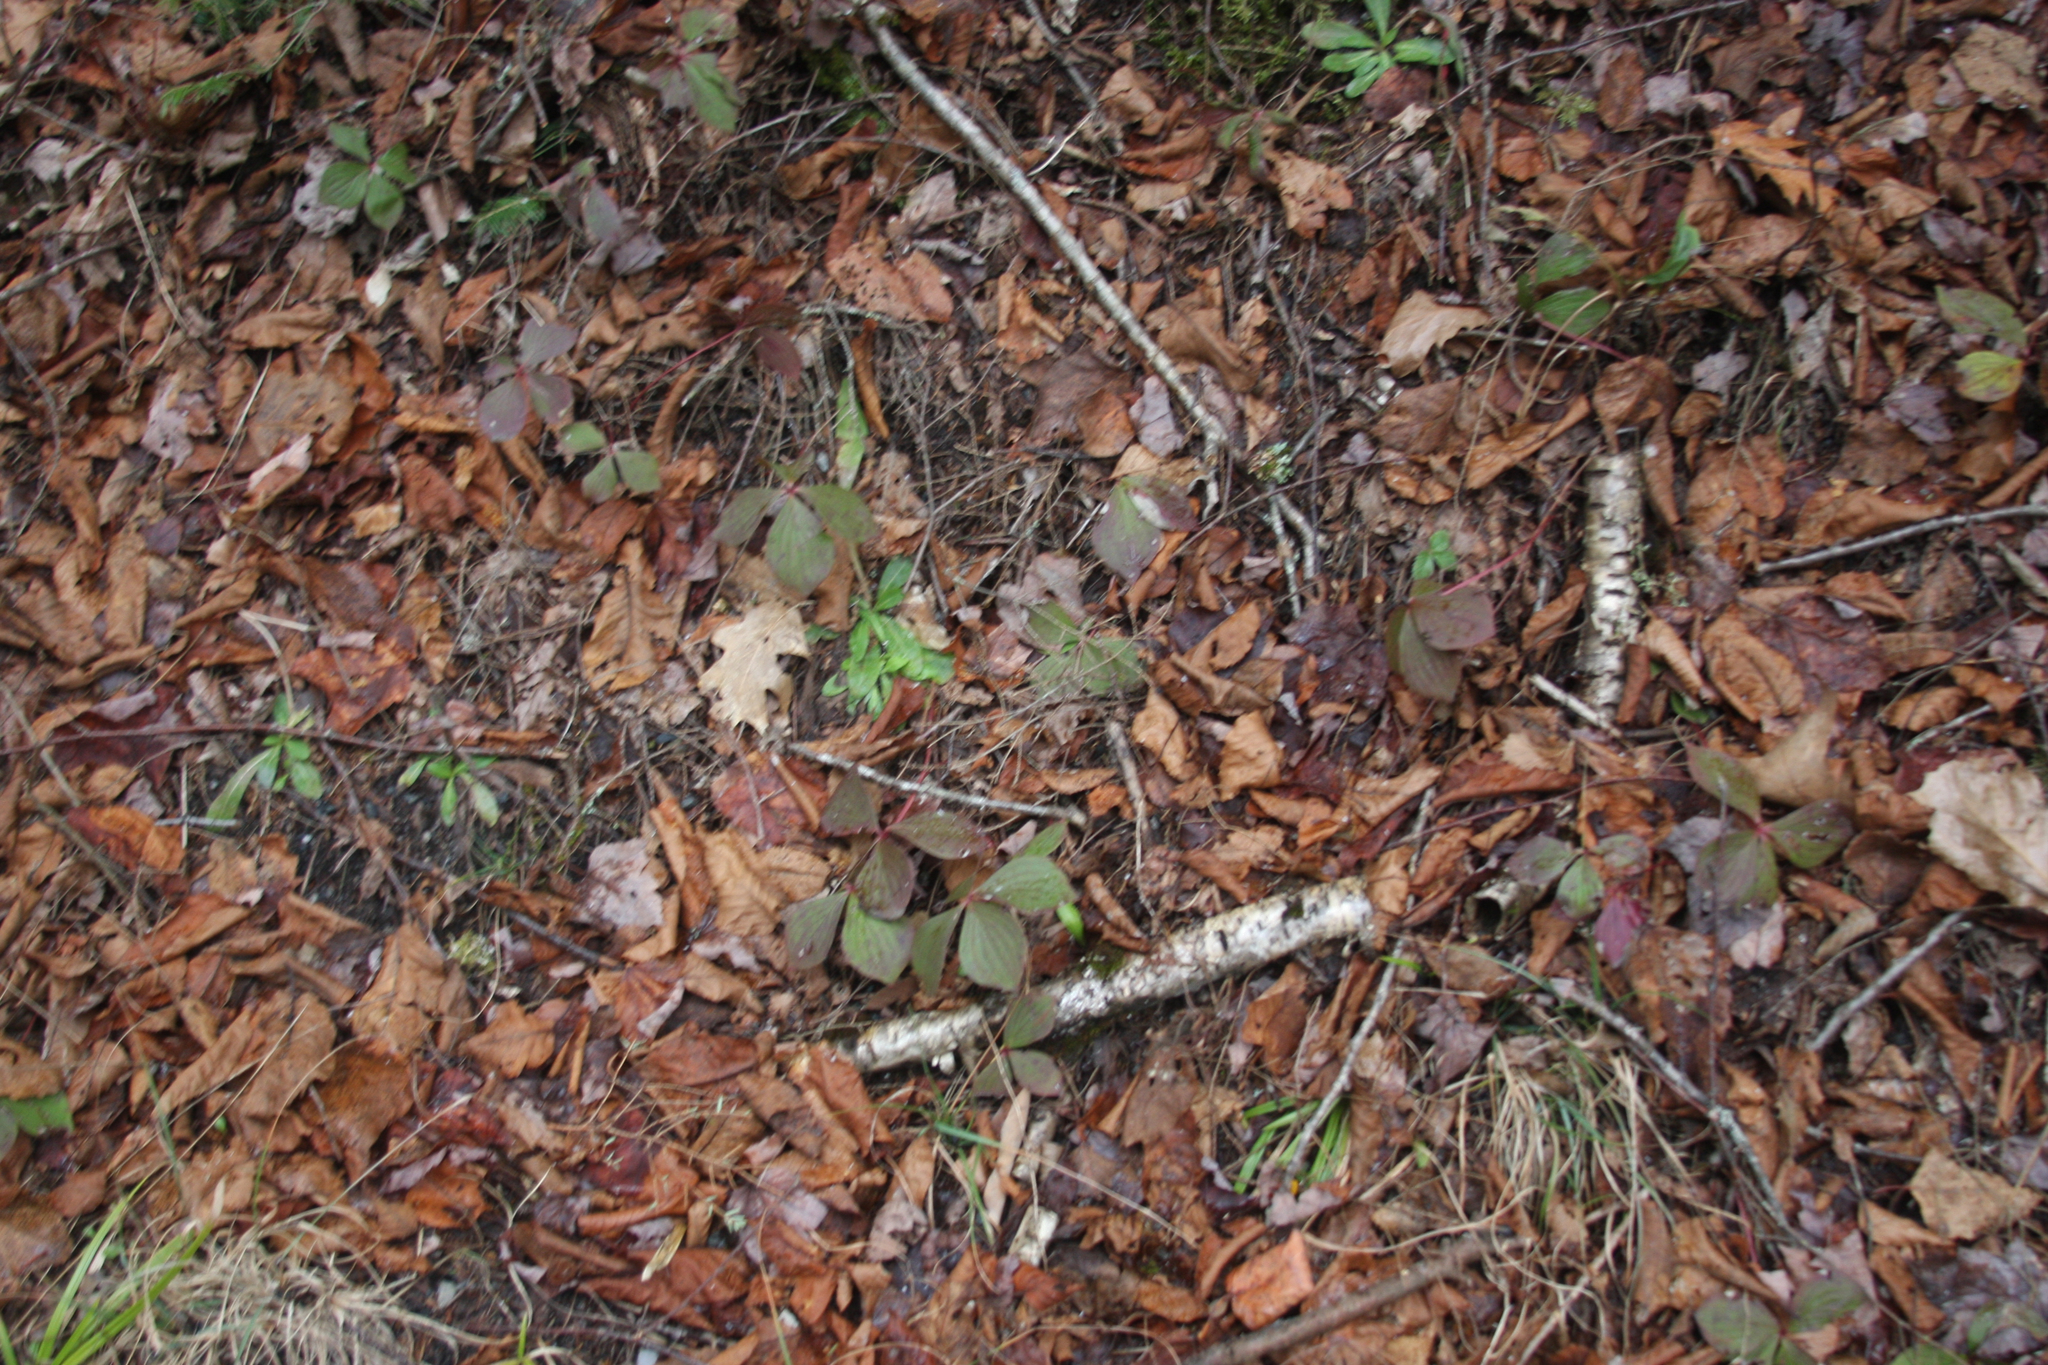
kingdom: Plantae
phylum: Tracheophyta
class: Magnoliopsida
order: Cornales
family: Cornaceae
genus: Cornus
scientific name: Cornus canadensis
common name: Creeping dogwood
